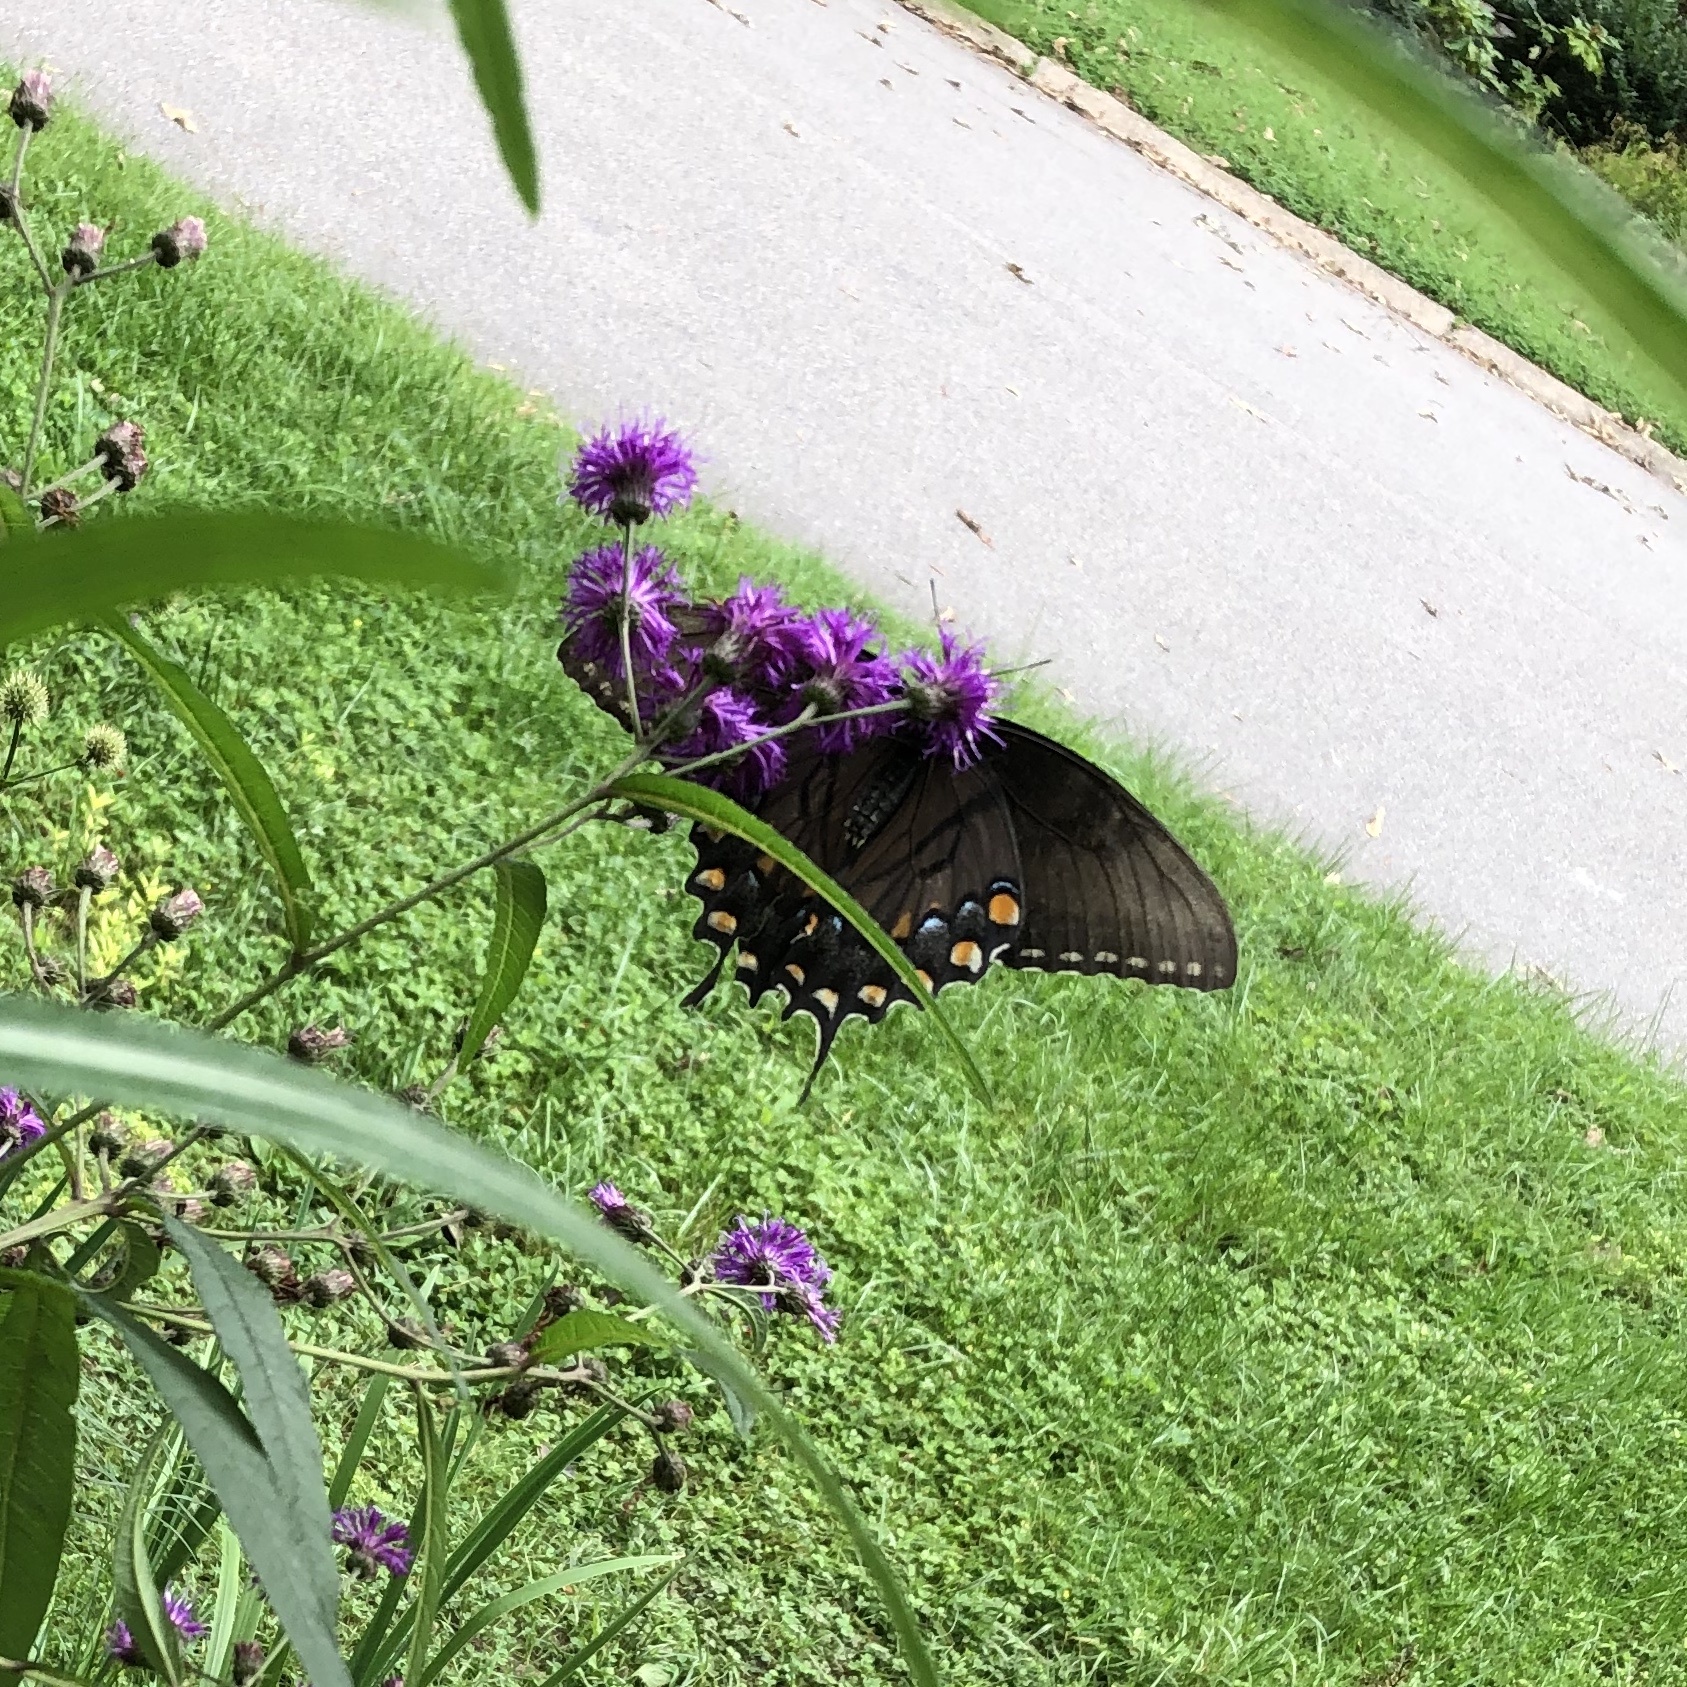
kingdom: Animalia
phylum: Arthropoda
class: Insecta
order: Lepidoptera
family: Papilionidae
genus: Papilio
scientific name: Papilio glaucus
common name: Tiger swallowtail
